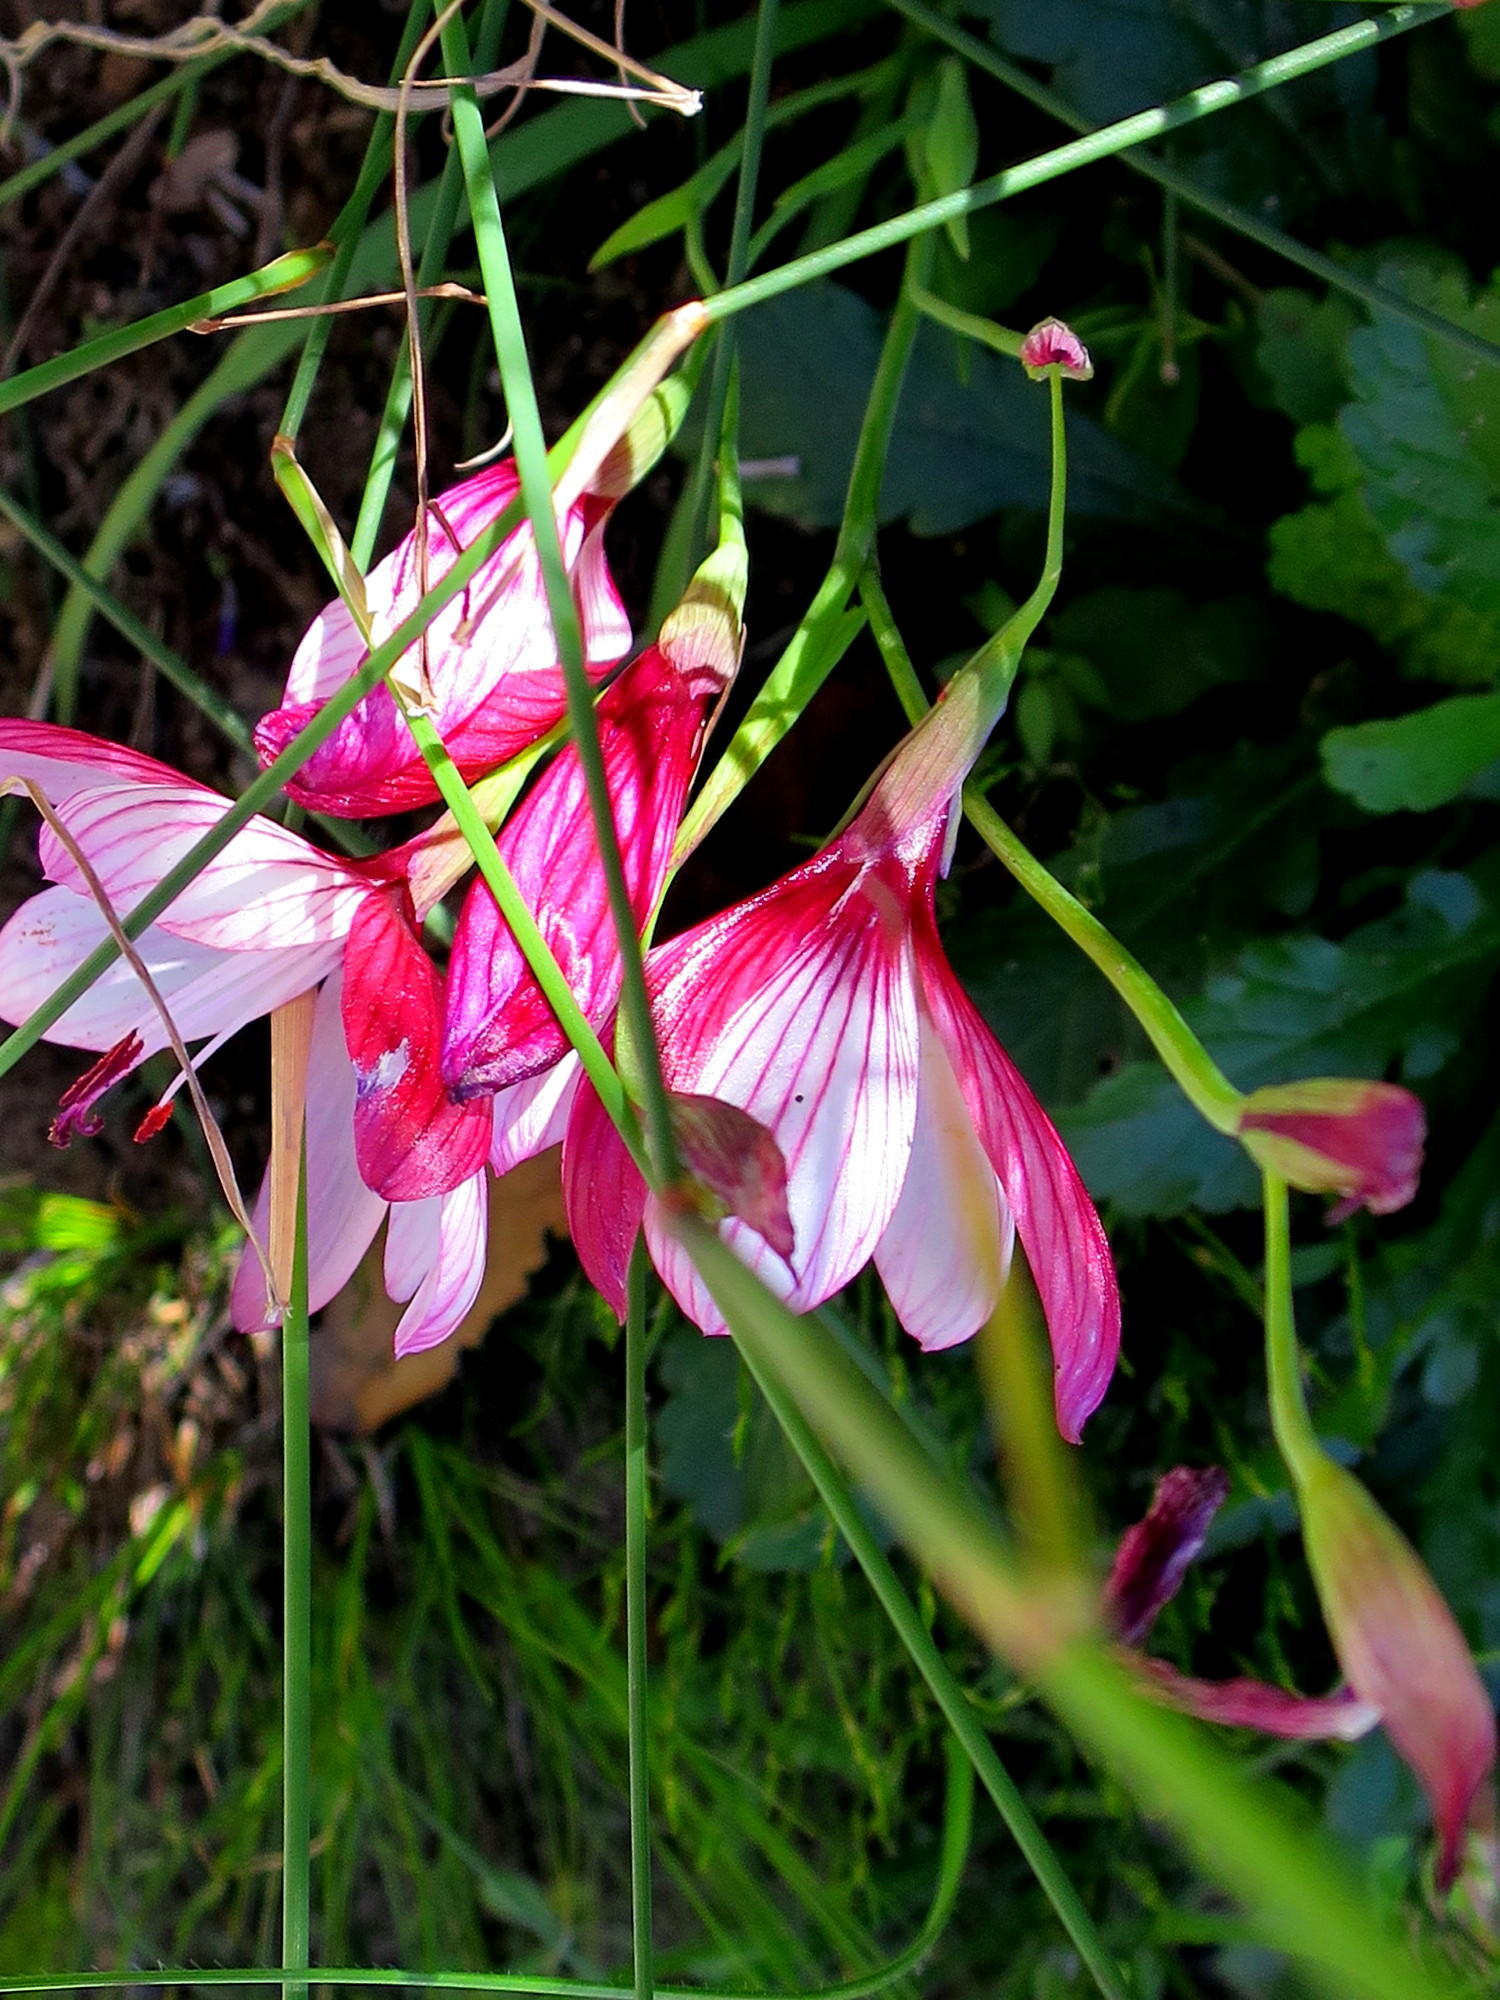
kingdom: Plantae
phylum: Tracheophyta
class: Liliopsida
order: Asparagales
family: Iridaceae
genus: Geissorhiza
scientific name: Geissorhiza elsiae
